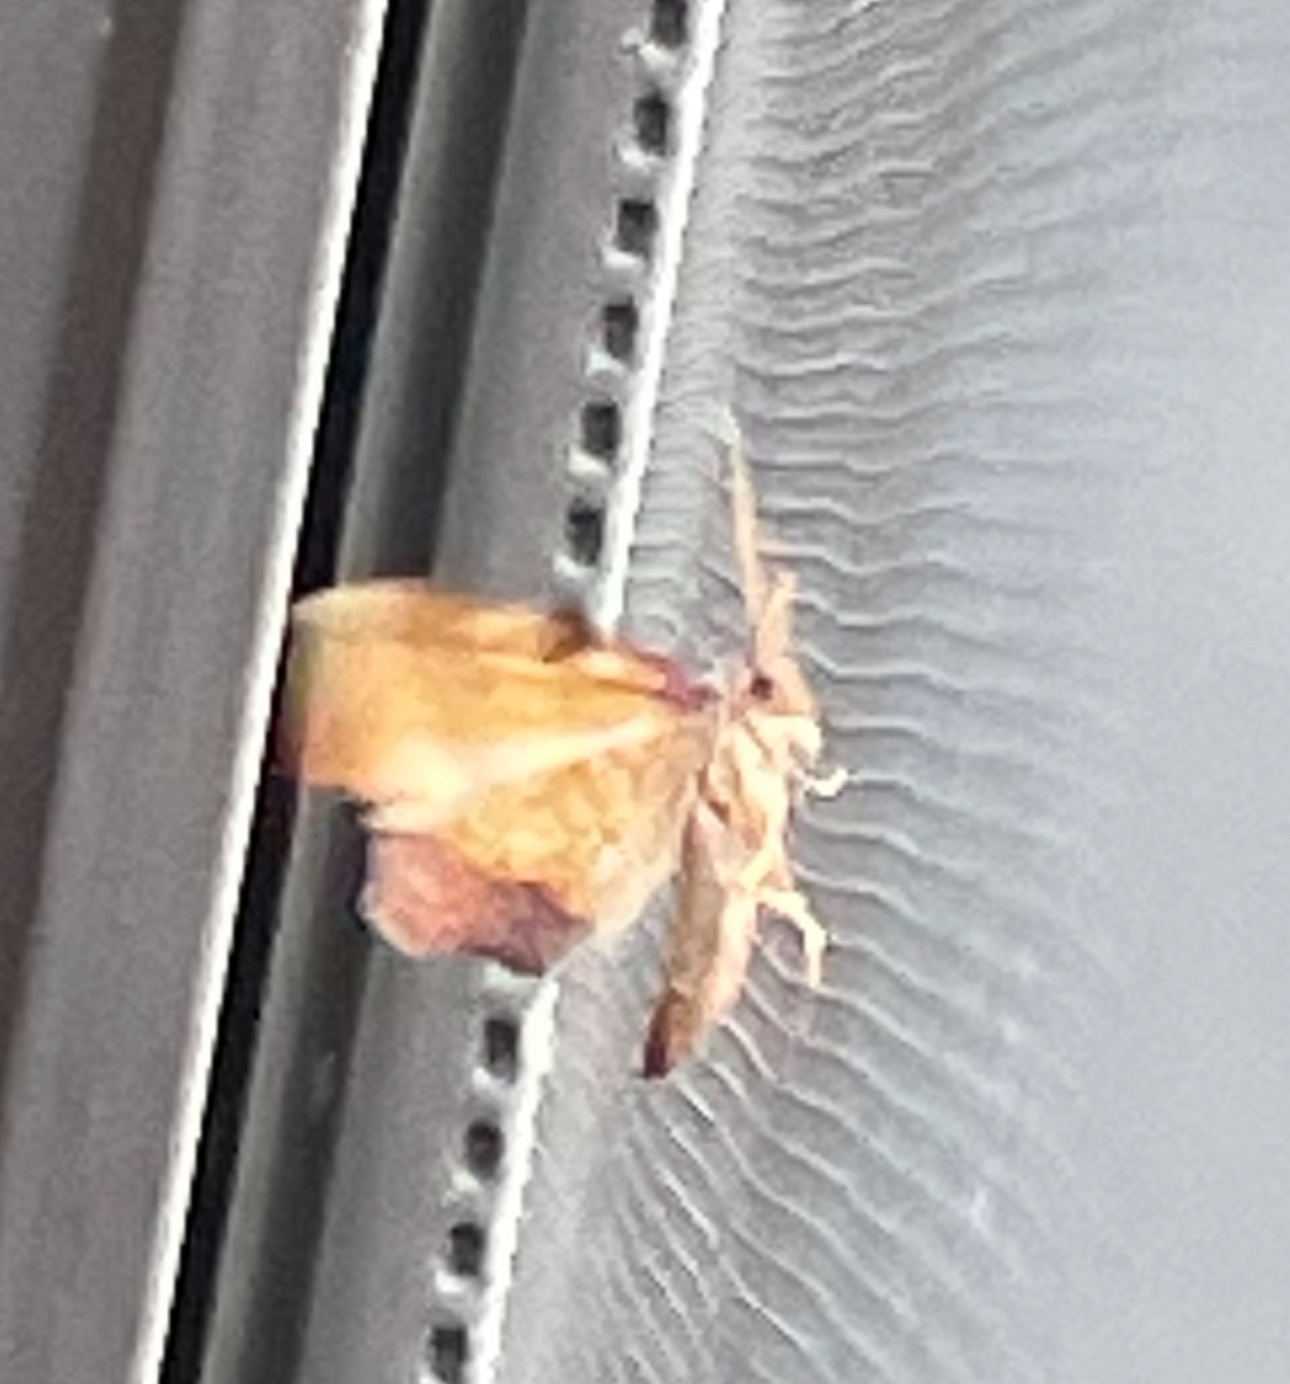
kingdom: Animalia
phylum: Arthropoda
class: Insecta
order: Lepidoptera
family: Geometridae
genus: Plagodis
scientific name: Plagodis fervidaria
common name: Fervid plagodis
